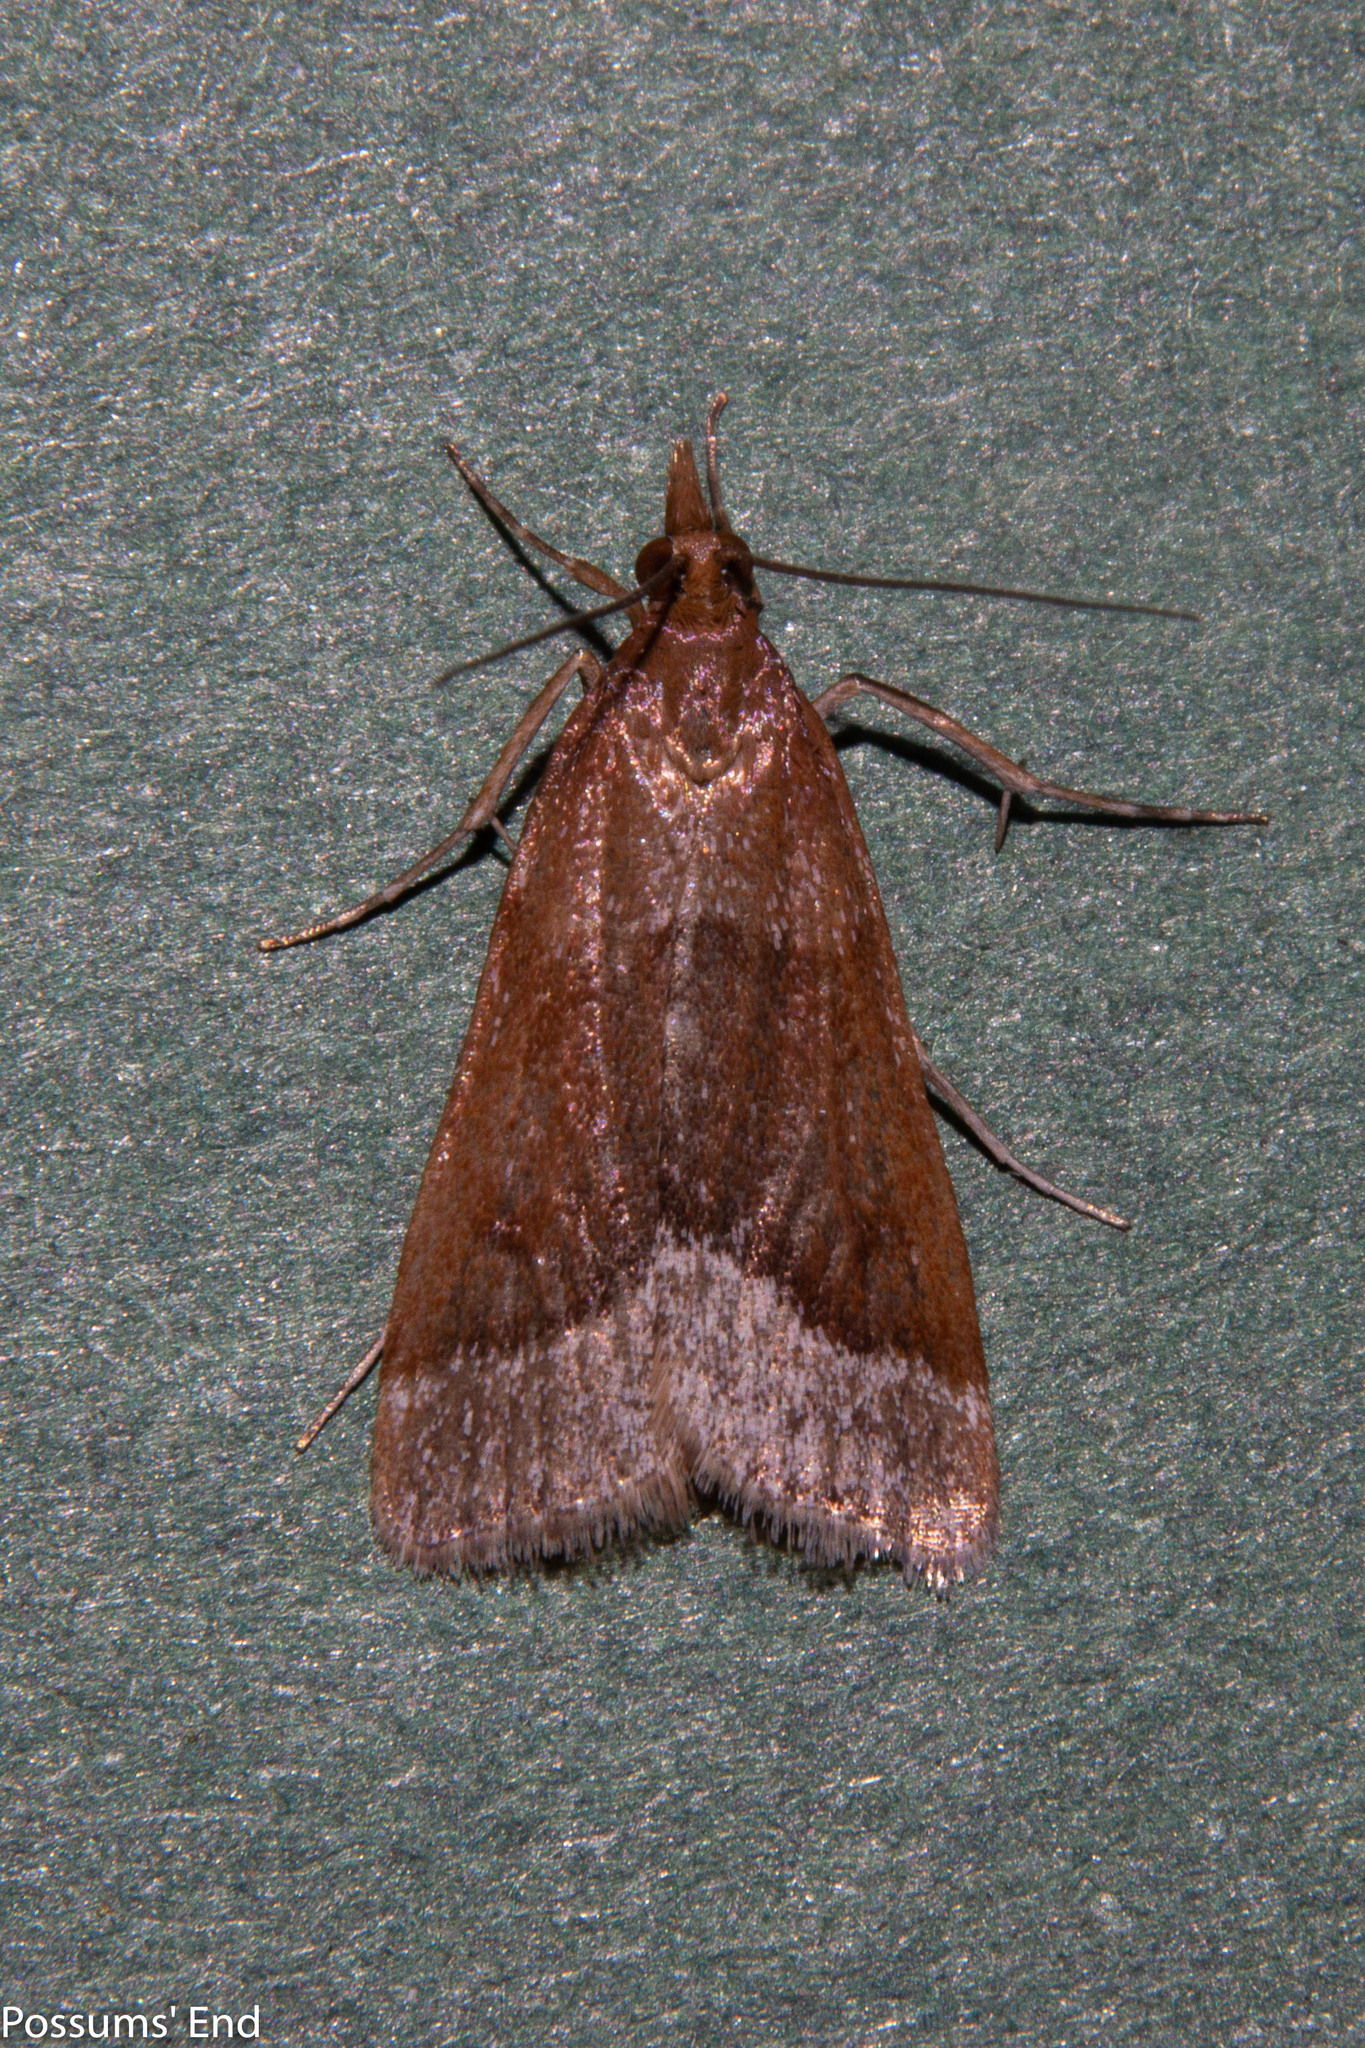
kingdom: Animalia
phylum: Arthropoda
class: Insecta
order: Lepidoptera
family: Crambidae
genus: Eudonia
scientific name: Eudonia feredayi
